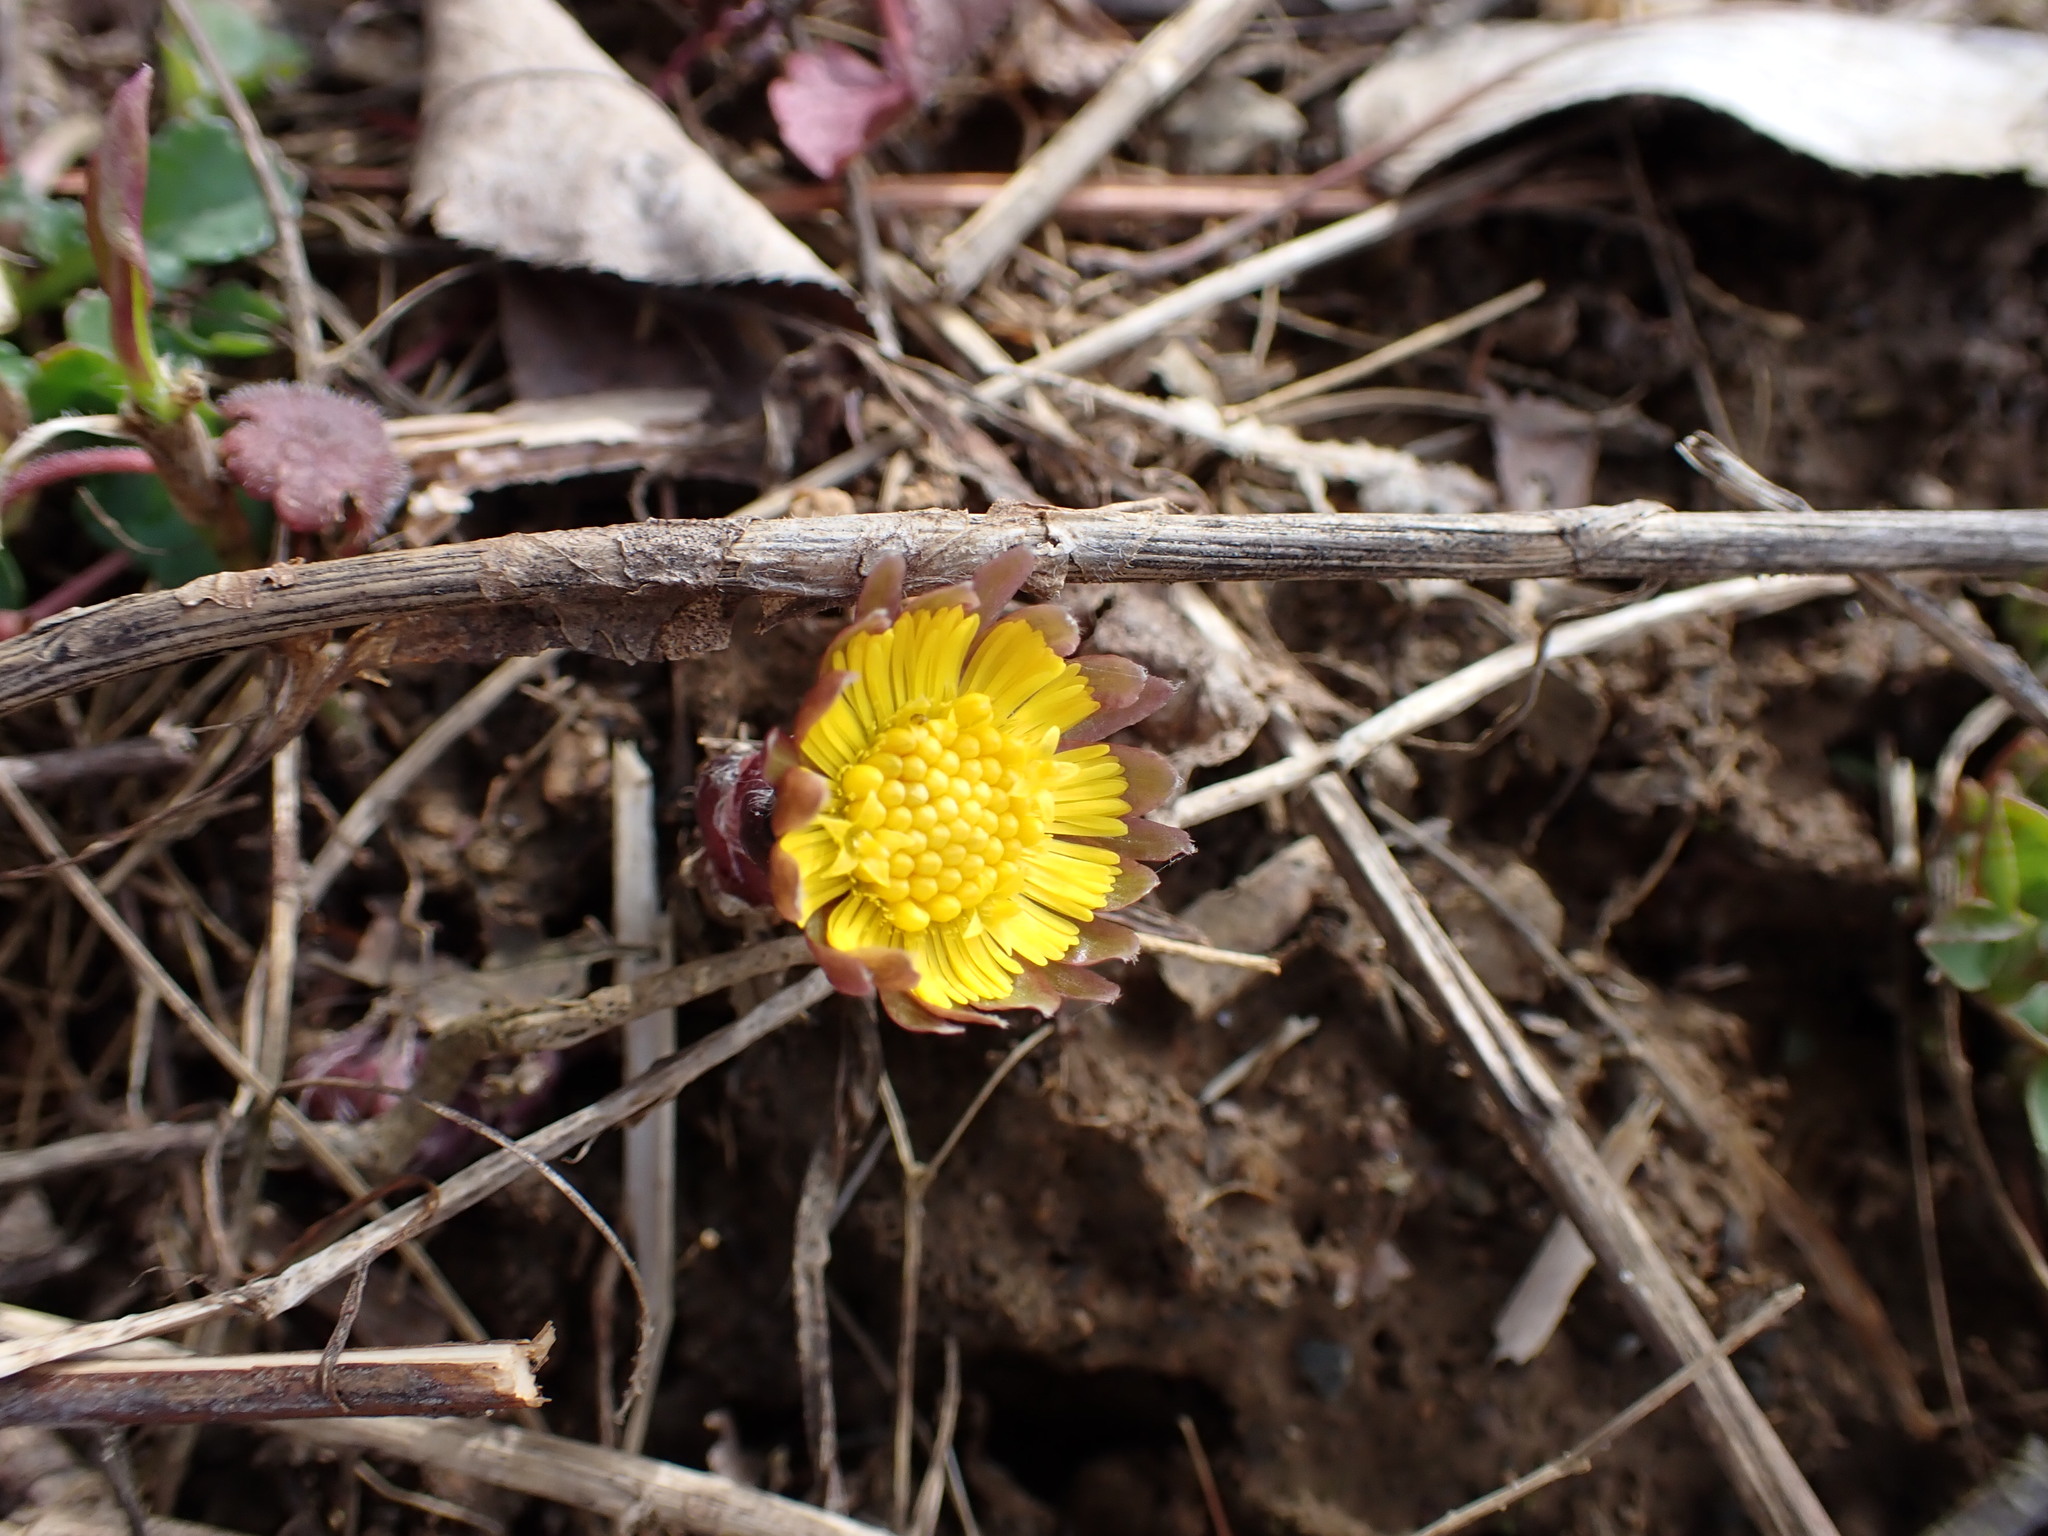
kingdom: Plantae
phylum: Tracheophyta
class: Magnoliopsida
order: Asterales
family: Asteraceae
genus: Tussilago
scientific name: Tussilago farfara
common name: Coltsfoot
